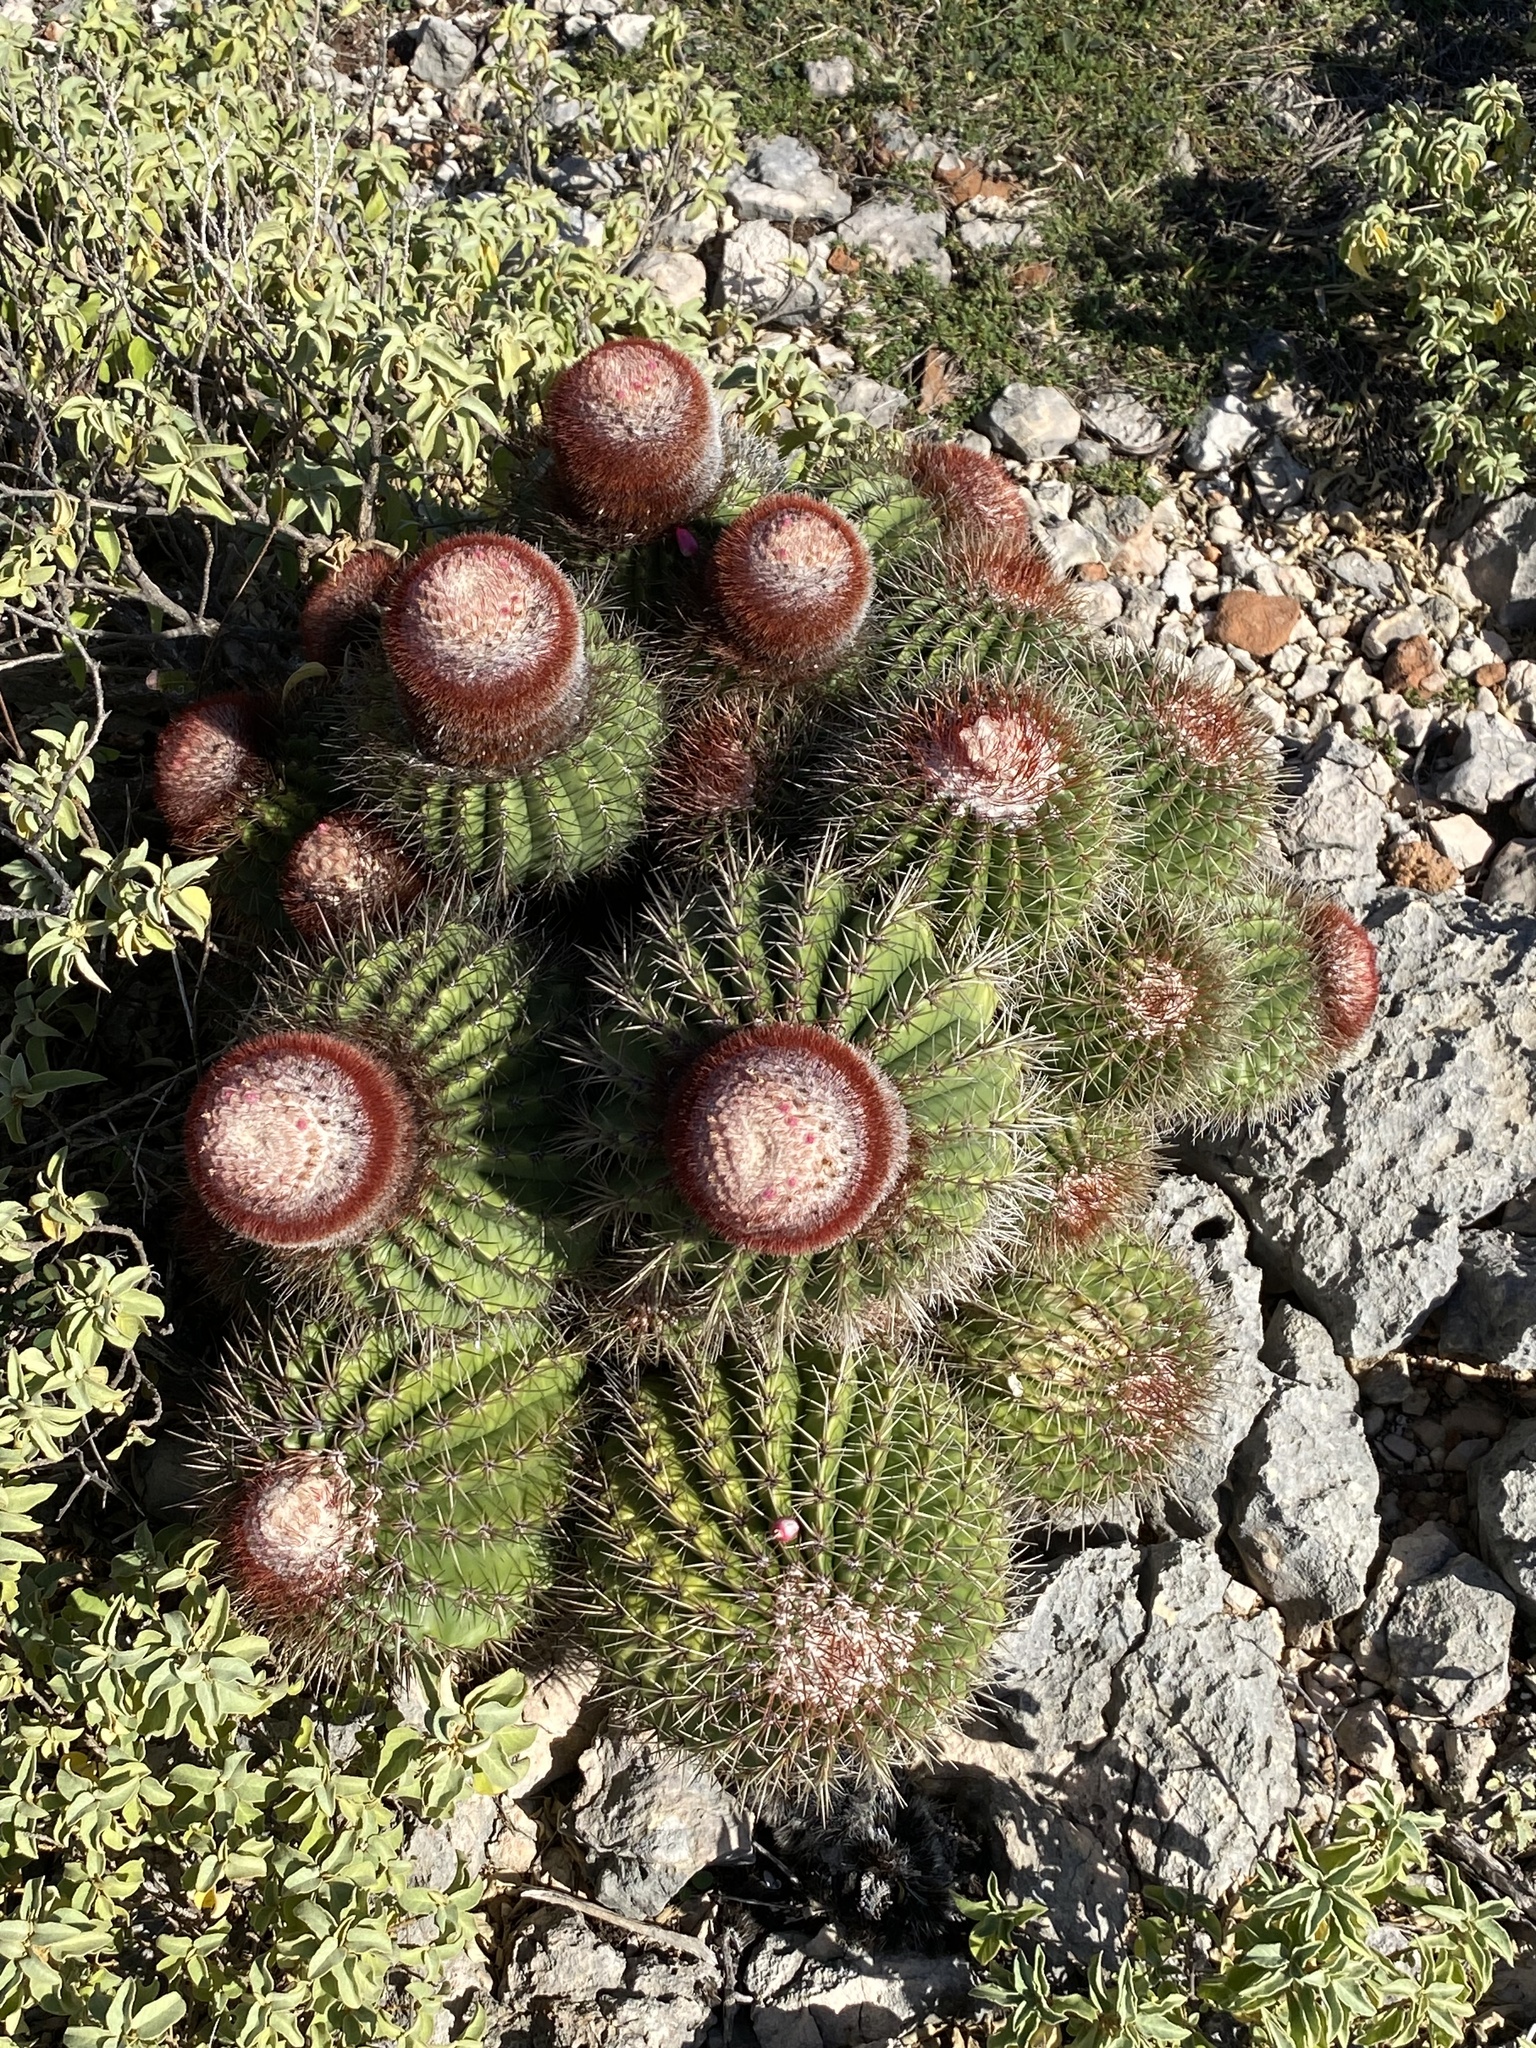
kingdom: Plantae
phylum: Tracheophyta
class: Magnoliopsida
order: Caryophyllales
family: Cactaceae
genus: Melocactus
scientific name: Melocactus intortus
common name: Barrel cactus
